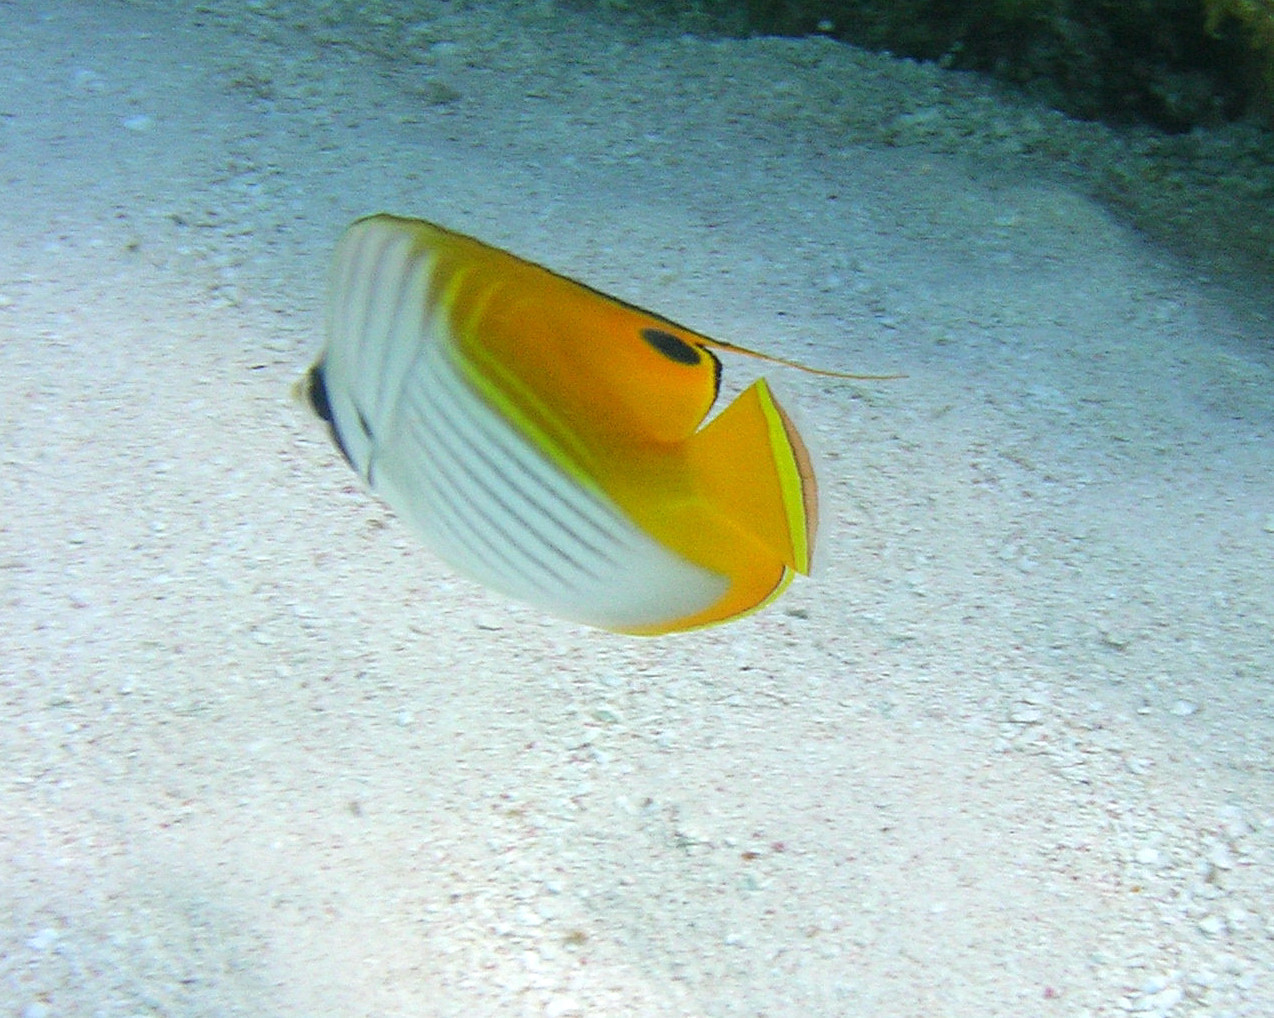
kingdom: Animalia
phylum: Chordata
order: Perciformes
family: Chaetodontidae
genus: Chaetodon
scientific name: Chaetodon auriga
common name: Threadfin butterflyfish
